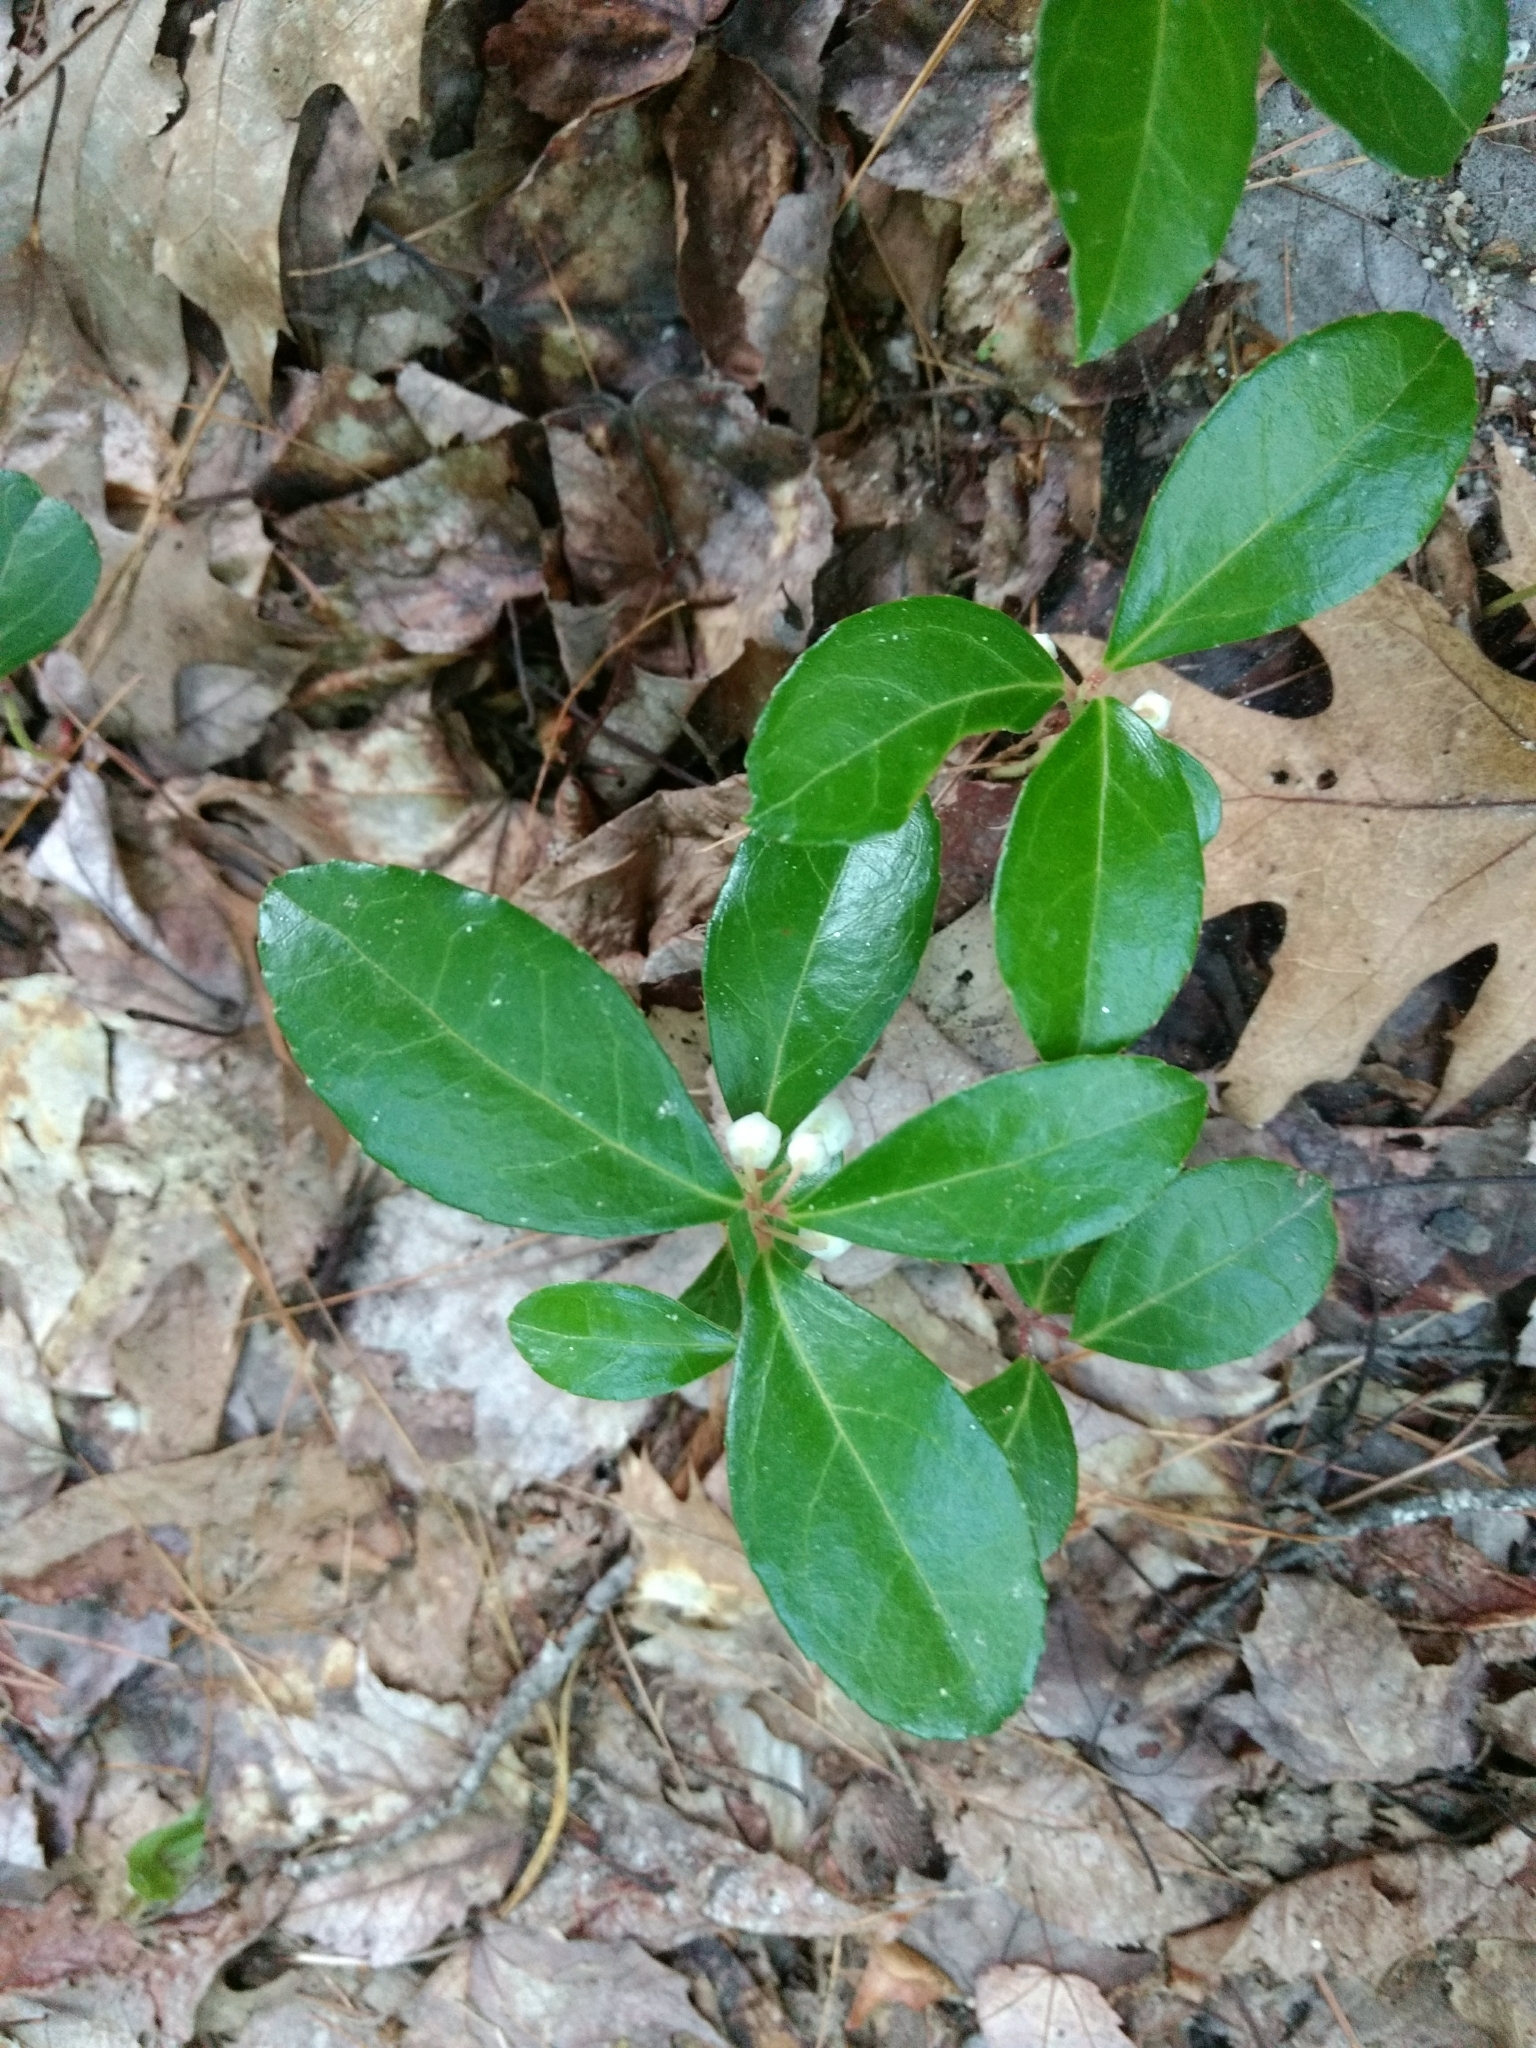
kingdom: Plantae
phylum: Tracheophyta
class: Magnoliopsida
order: Ericales
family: Ericaceae
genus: Gaultheria
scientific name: Gaultheria procumbens
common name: Checkerberry
